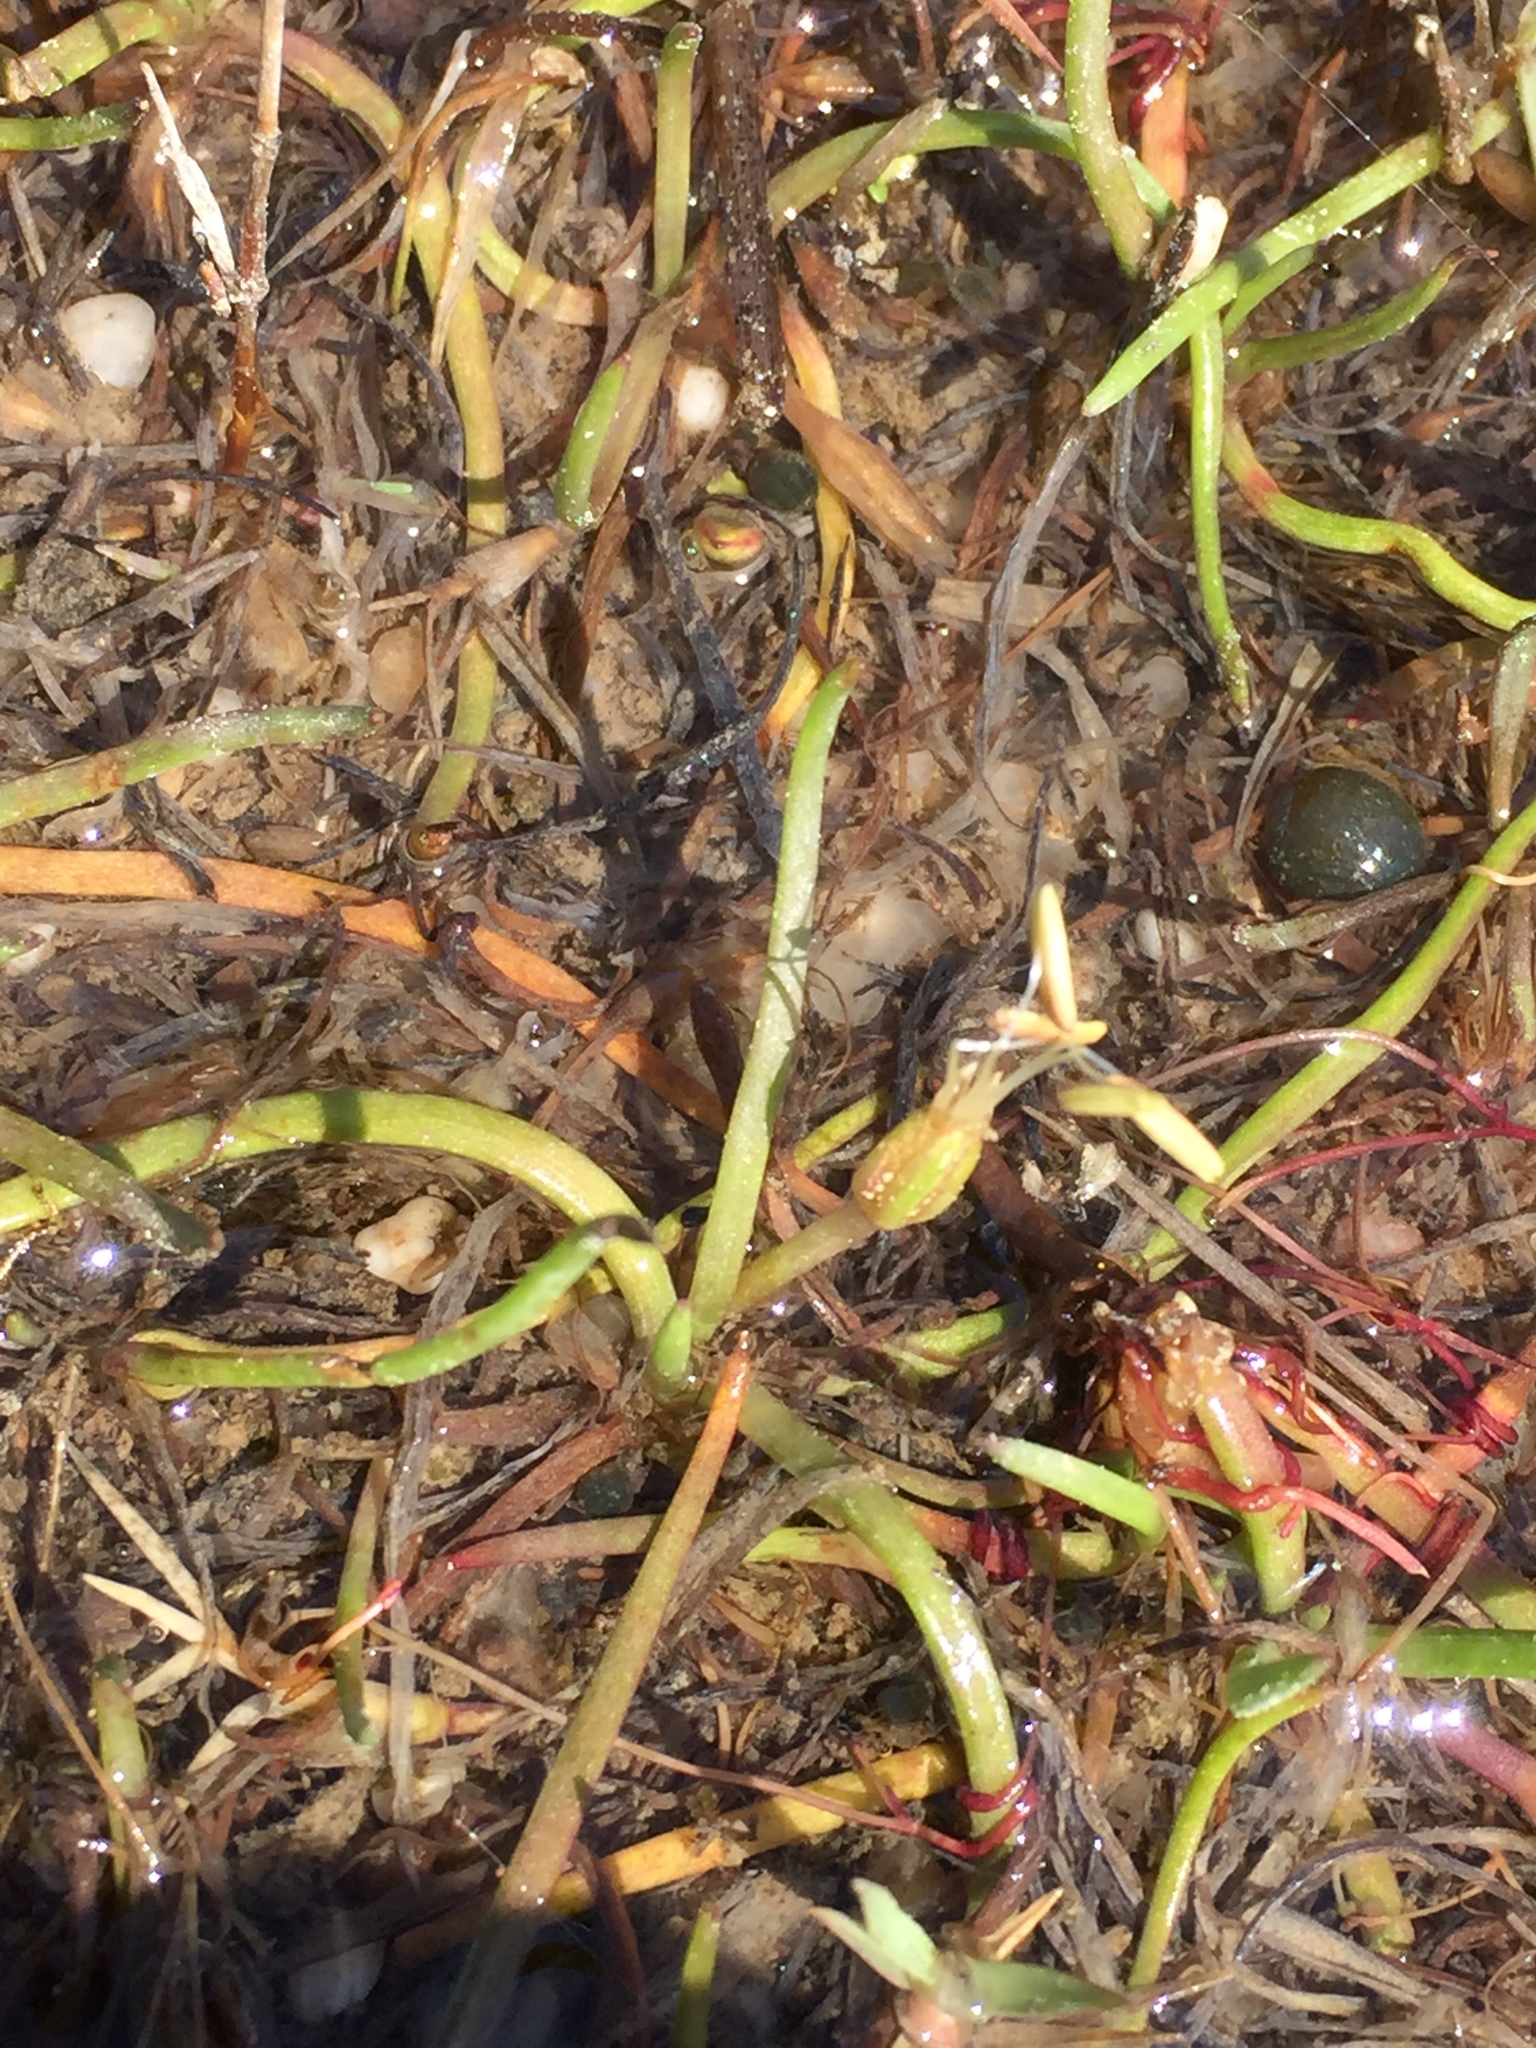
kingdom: Plantae
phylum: Tracheophyta
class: Magnoliopsida
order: Lamiales
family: Plantaginaceae
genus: Littorella
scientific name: Littorella uniflora
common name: Shoreweed
